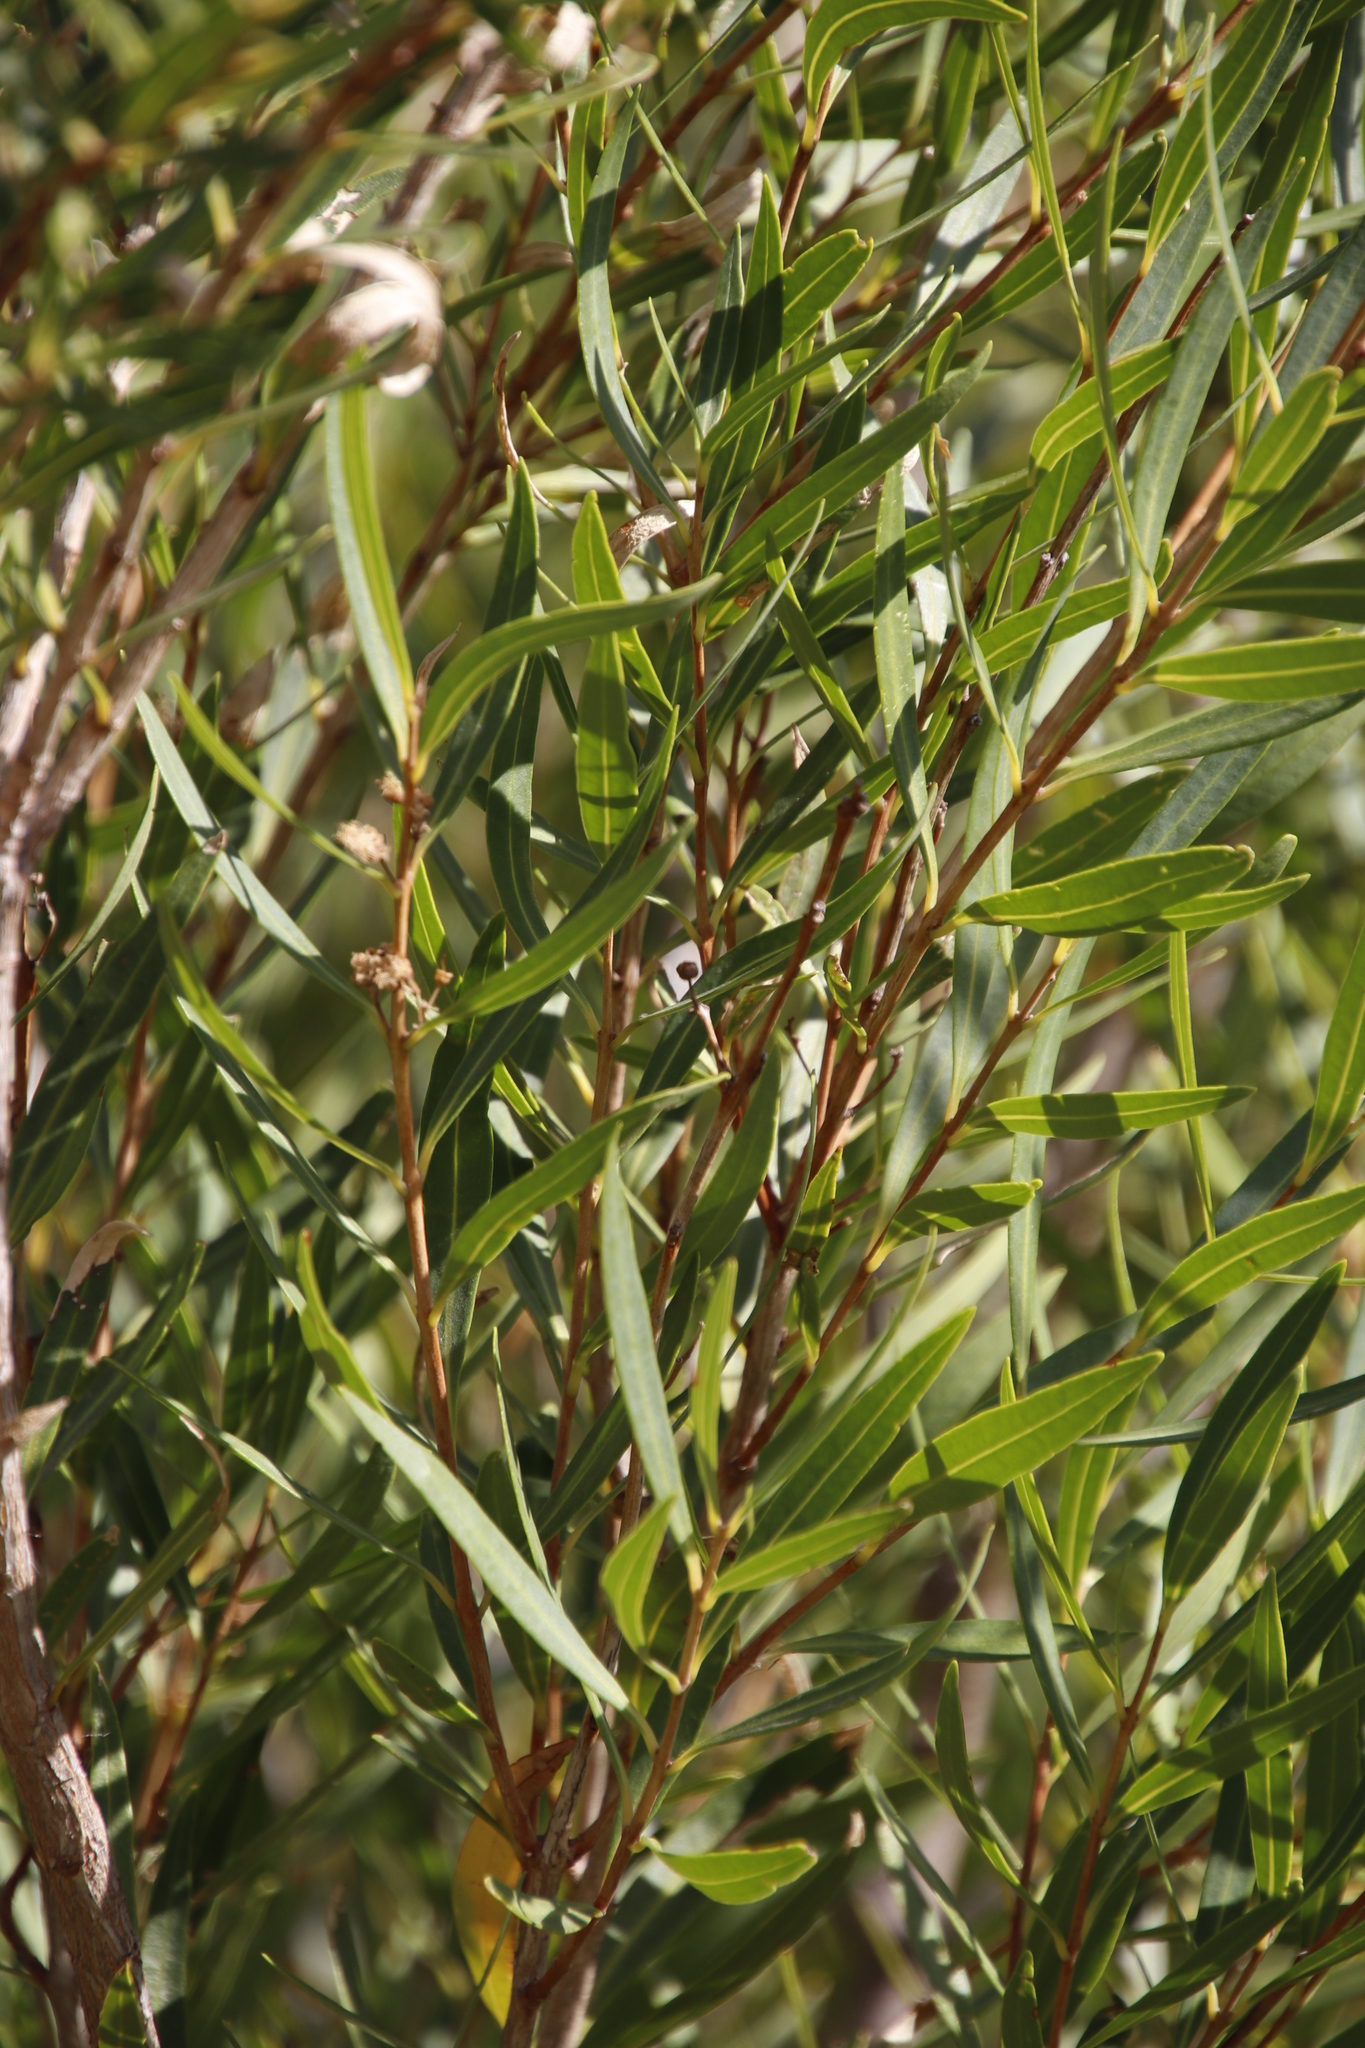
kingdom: Plantae
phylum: Tracheophyta
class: Magnoliopsida
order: Myrtales
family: Myrtaceae
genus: Callistemon
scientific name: Callistemon lanceolatus
